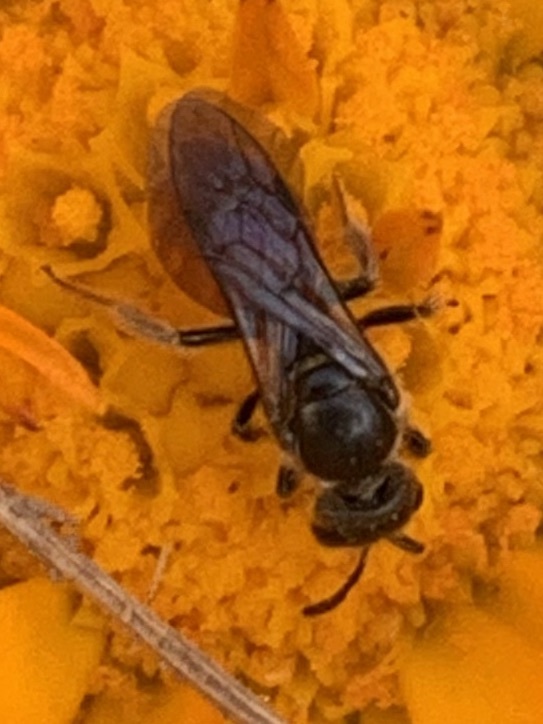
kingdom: Animalia
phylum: Arthropoda
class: Insecta
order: Hymenoptera
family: Halictidae
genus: Lasioglossum
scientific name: Lasioglossum ovaliceps
